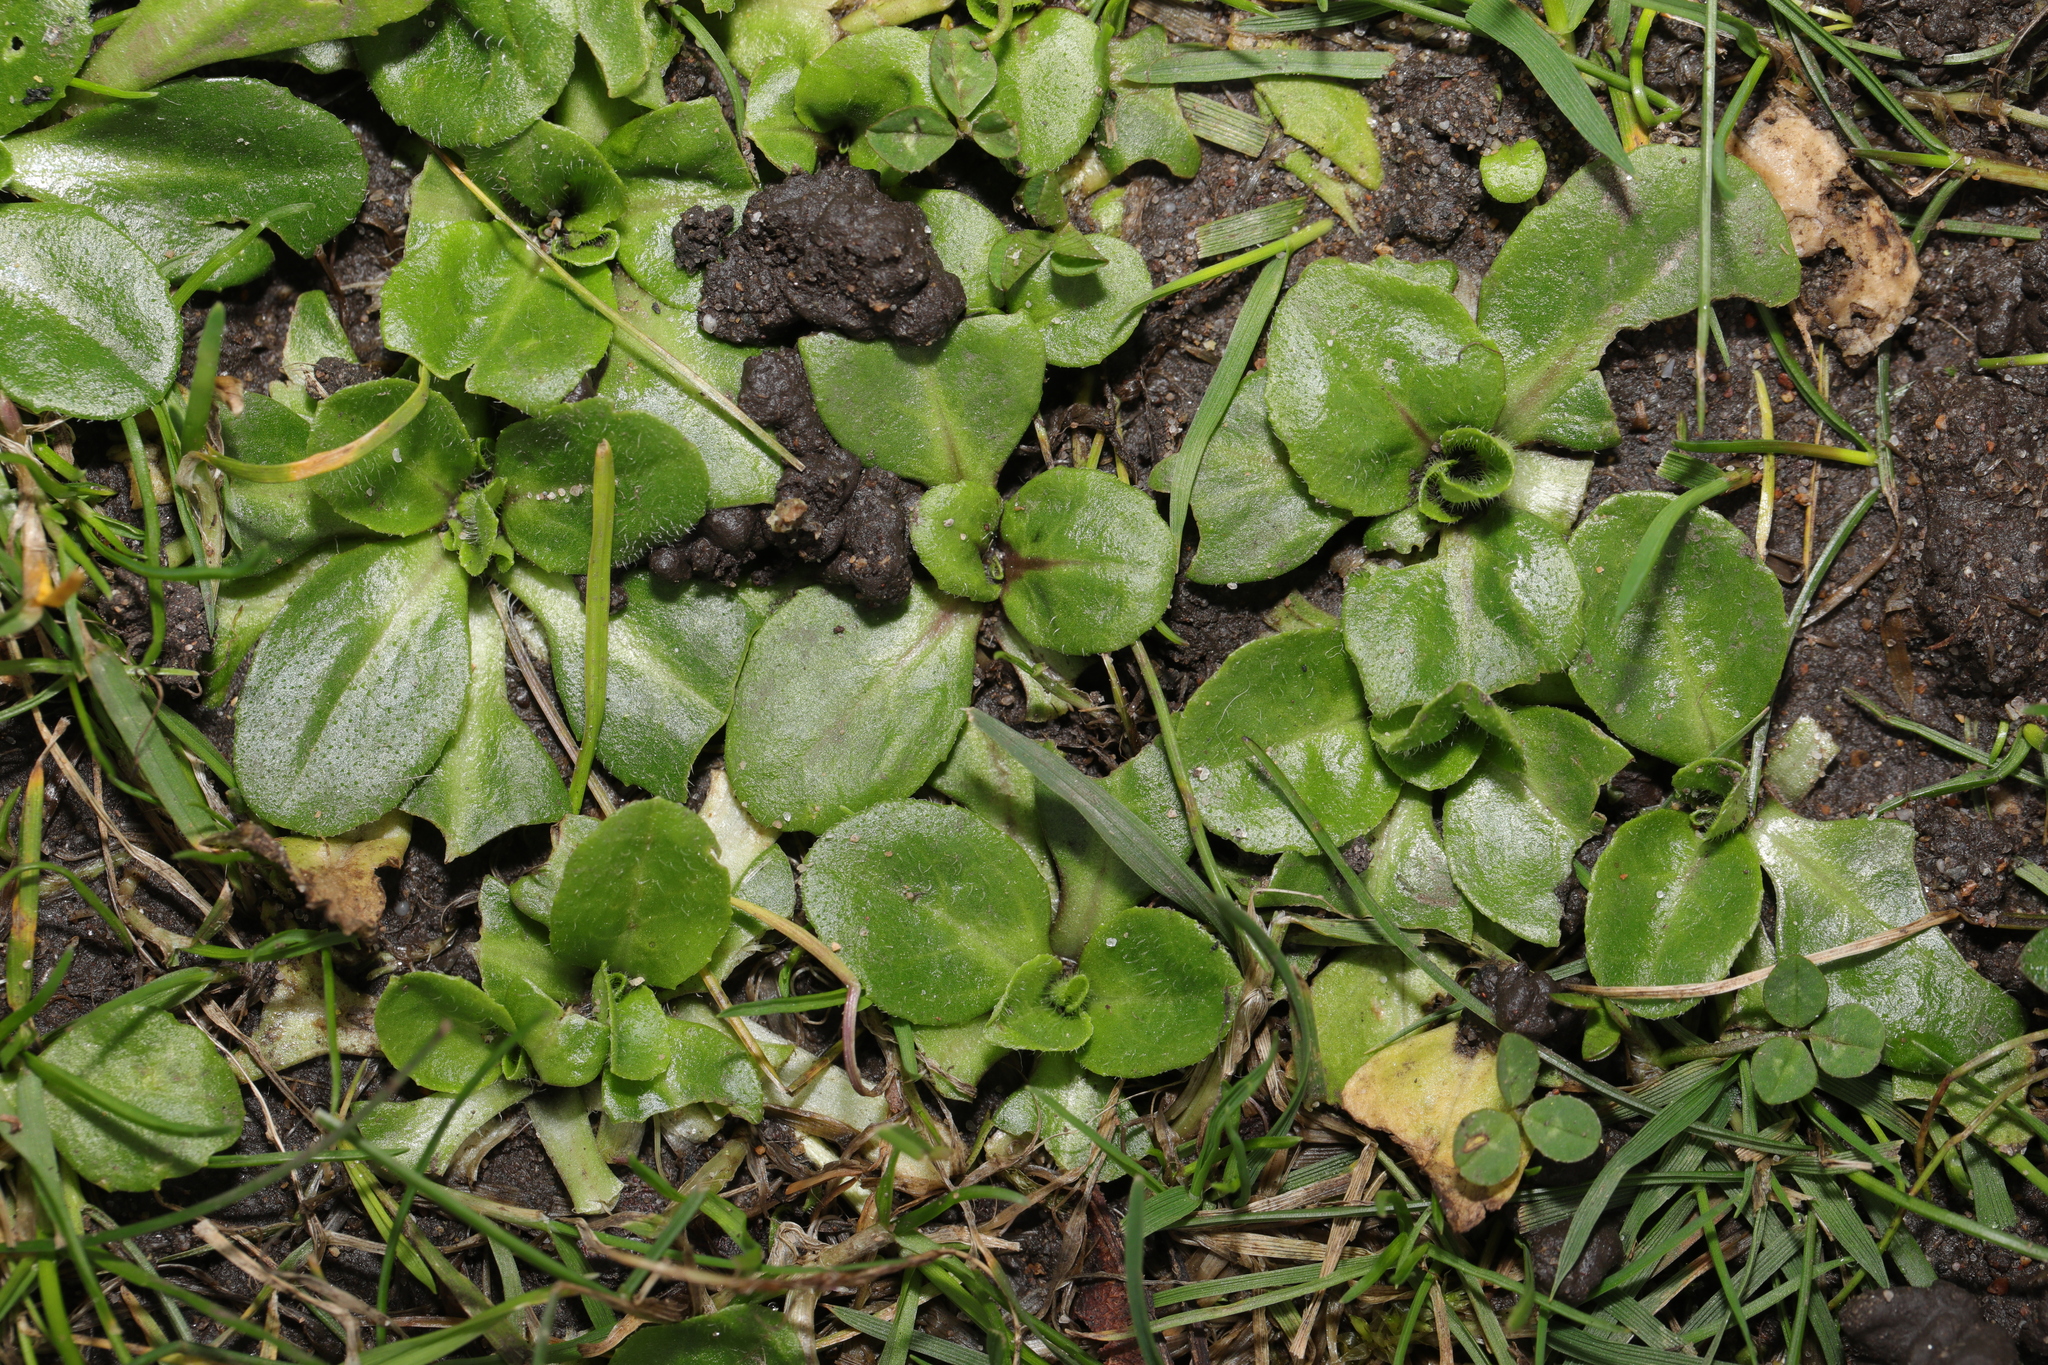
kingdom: Plantae
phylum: Tracheophyta
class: Magnoliopsida
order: Asterales
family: Asteraceae
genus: Bellis
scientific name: Bellis perennis
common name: Lawndaisy
